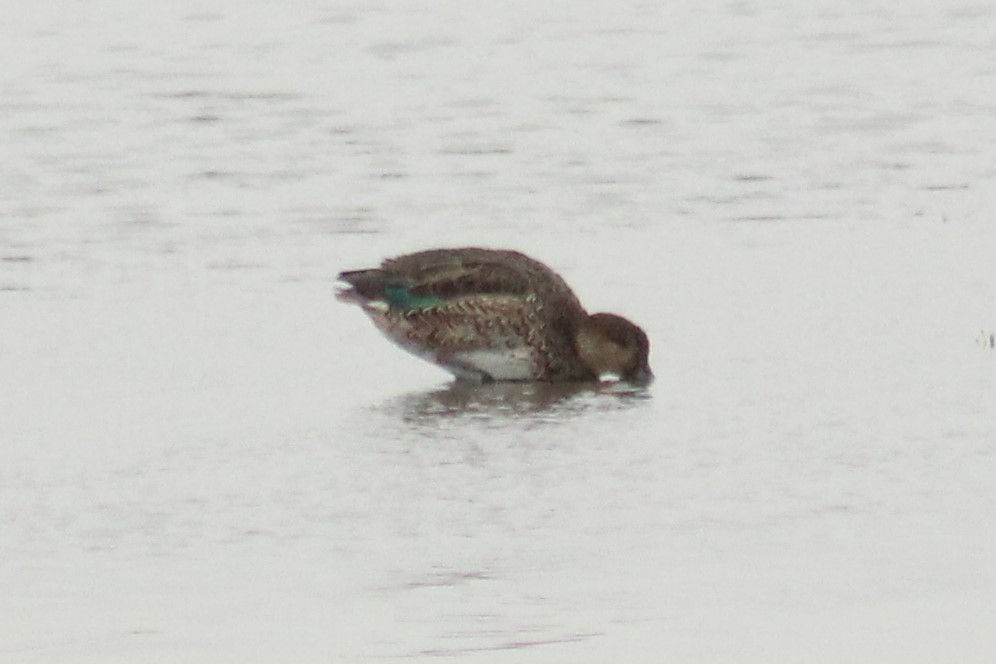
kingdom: Animalia
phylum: Chordata
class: Aves
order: Anseriformes
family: Anatidae
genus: Anas
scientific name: Anas crecca
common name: Eurasian teal
